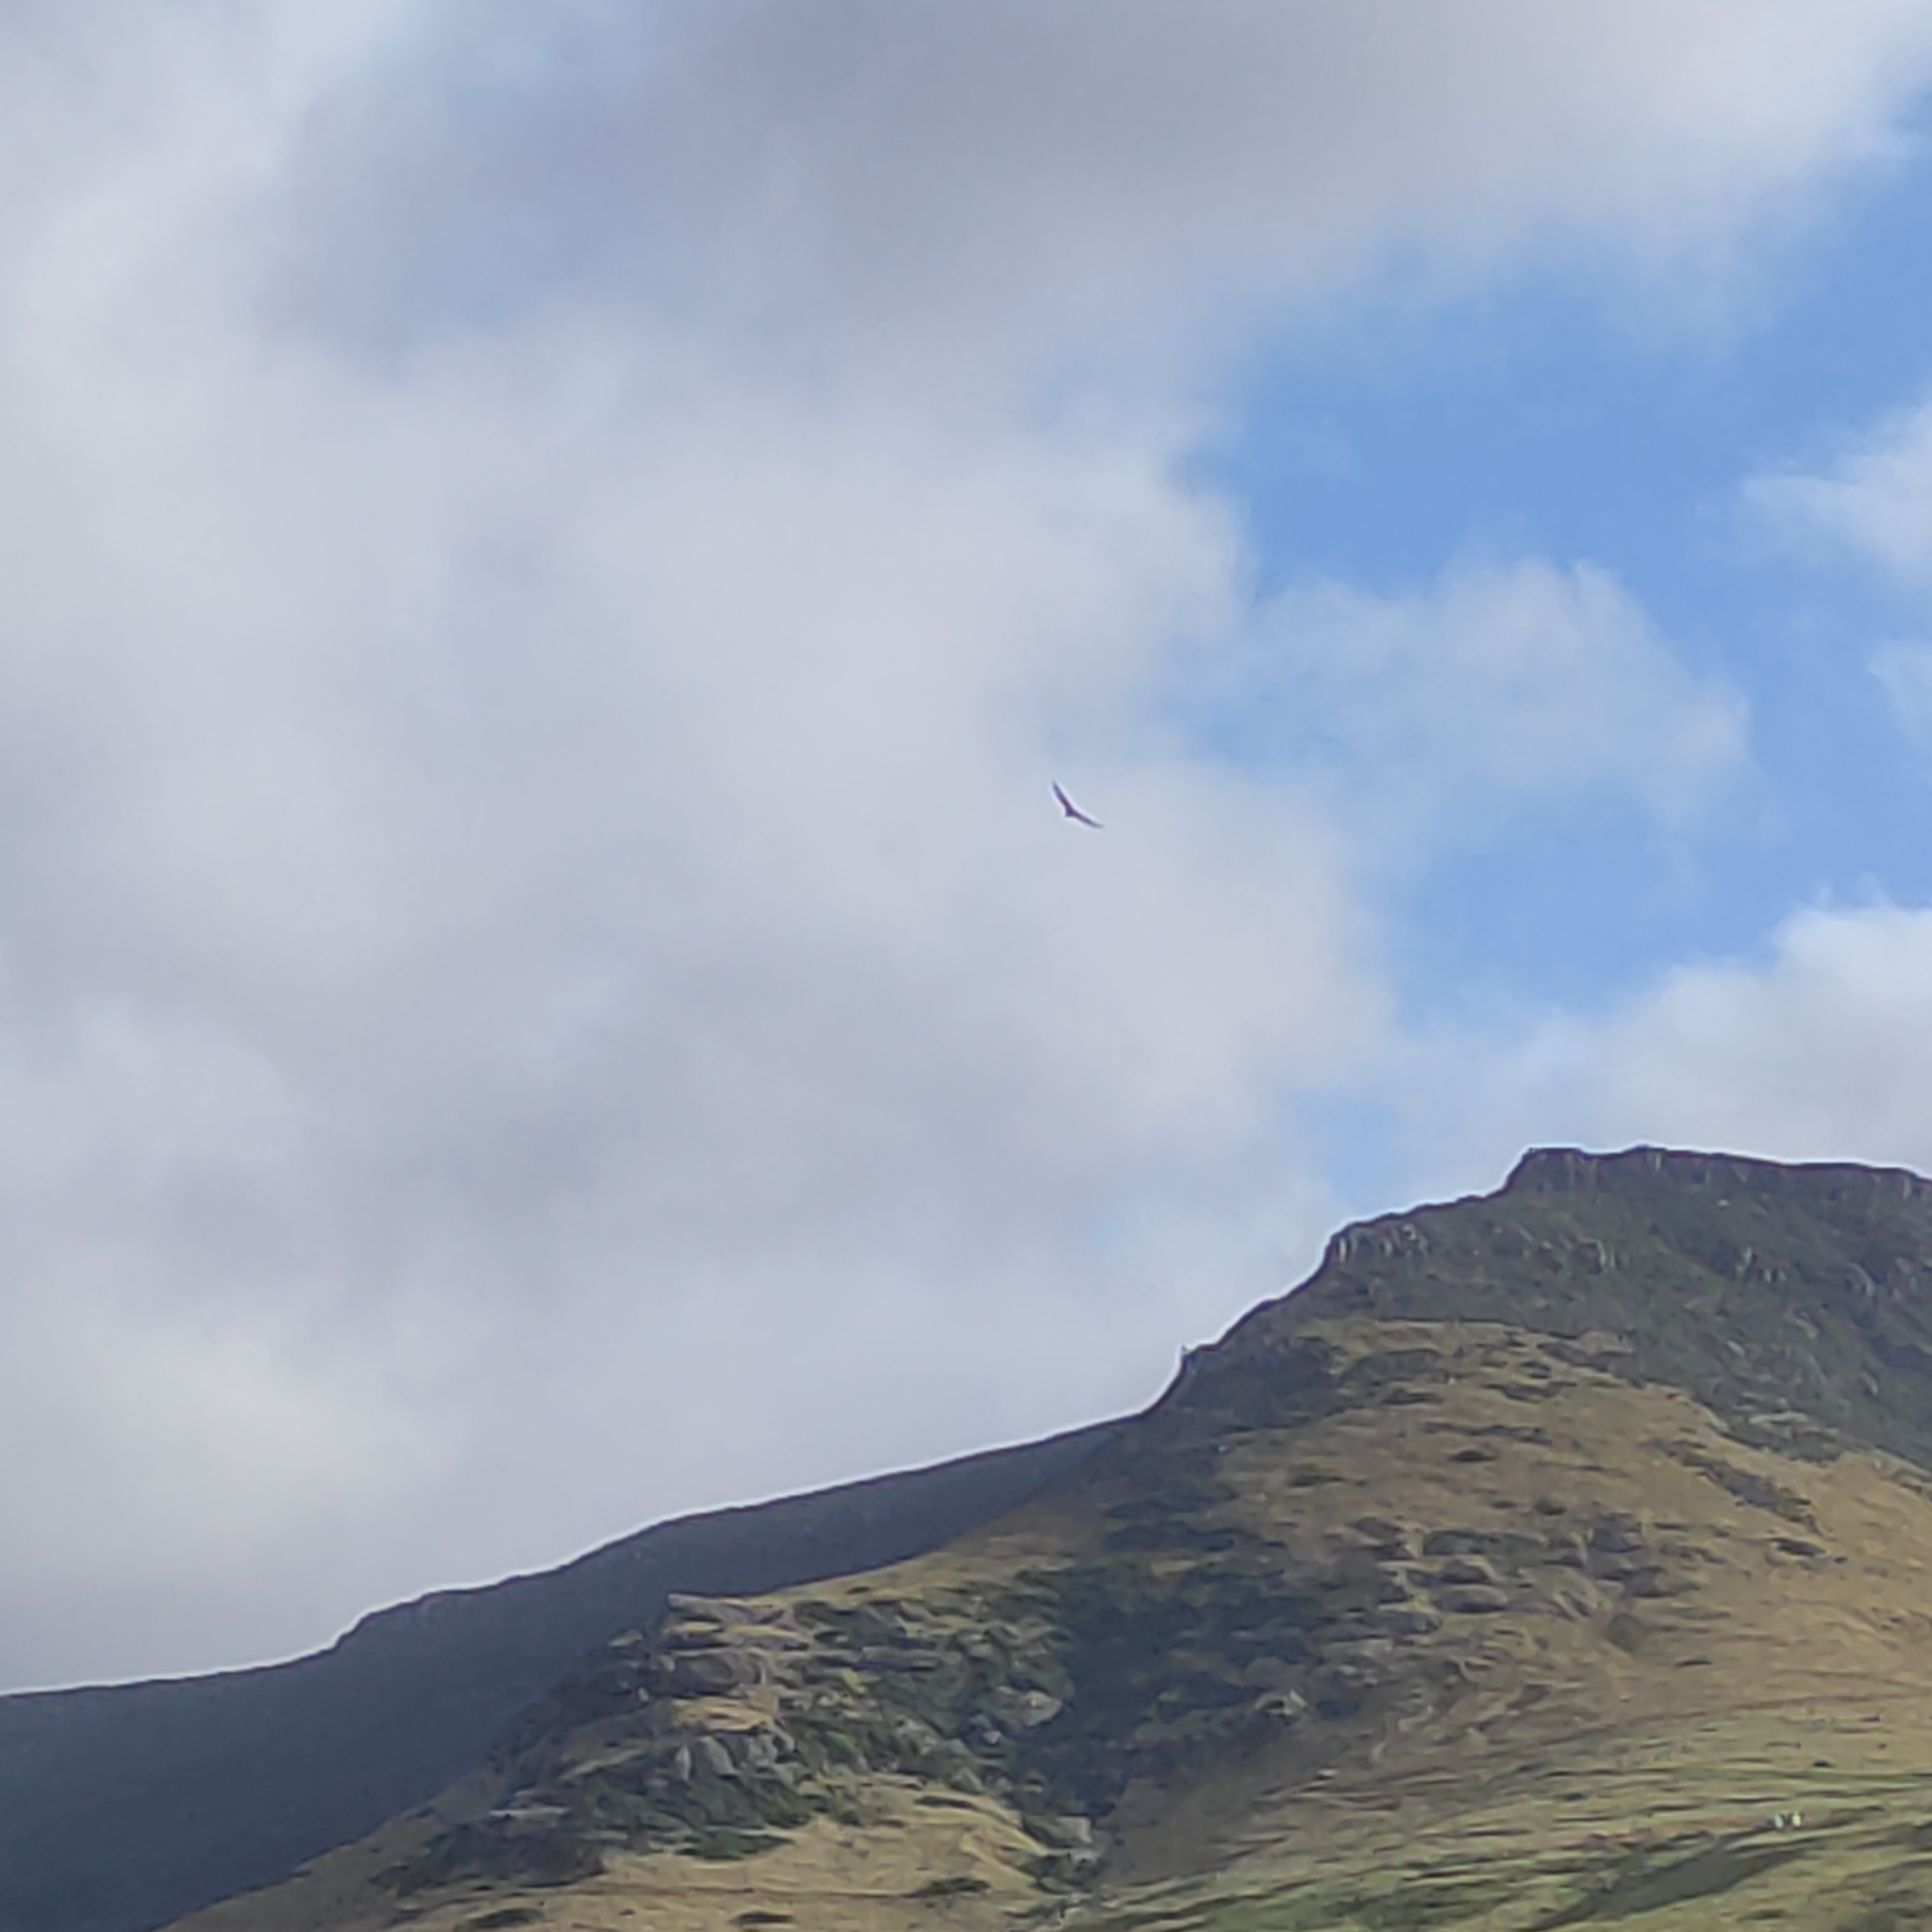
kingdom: Animalia
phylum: Chordata
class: Aves
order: Accipitriformes
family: Accipitridae
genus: Circus
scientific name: Circus approximans
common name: Swamp harrier
